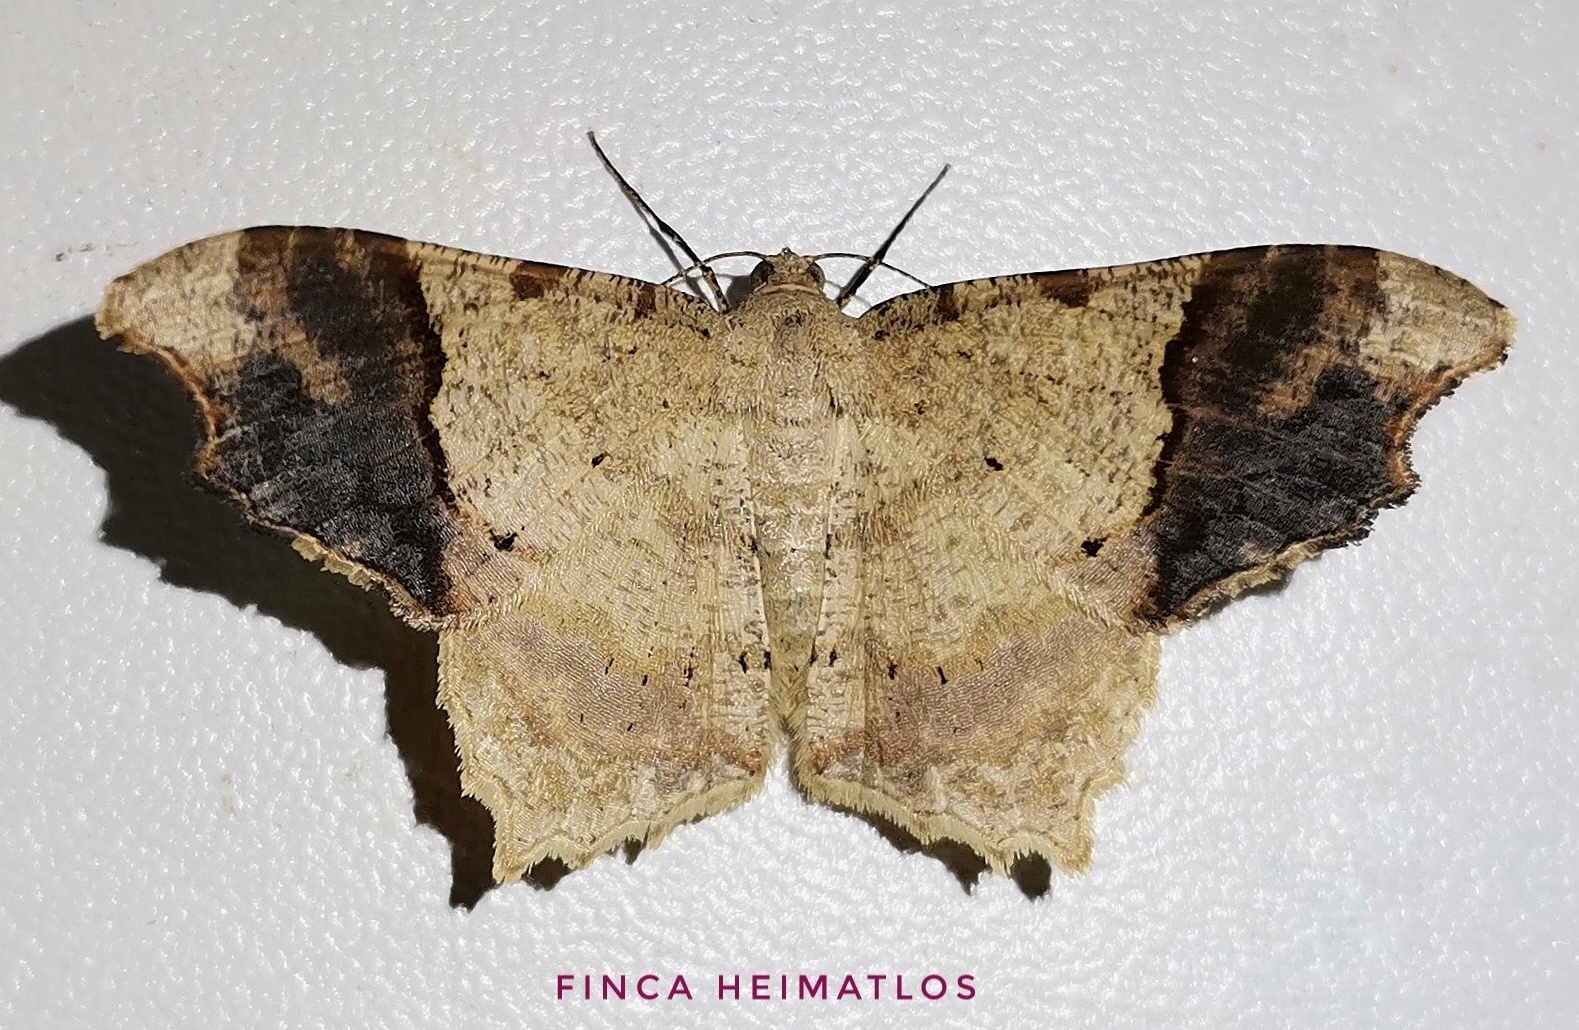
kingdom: Animalia
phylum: Arthropoda
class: Insecta
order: Lepidoptera
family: Geometridae
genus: Macaria
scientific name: Macaria gambarina
